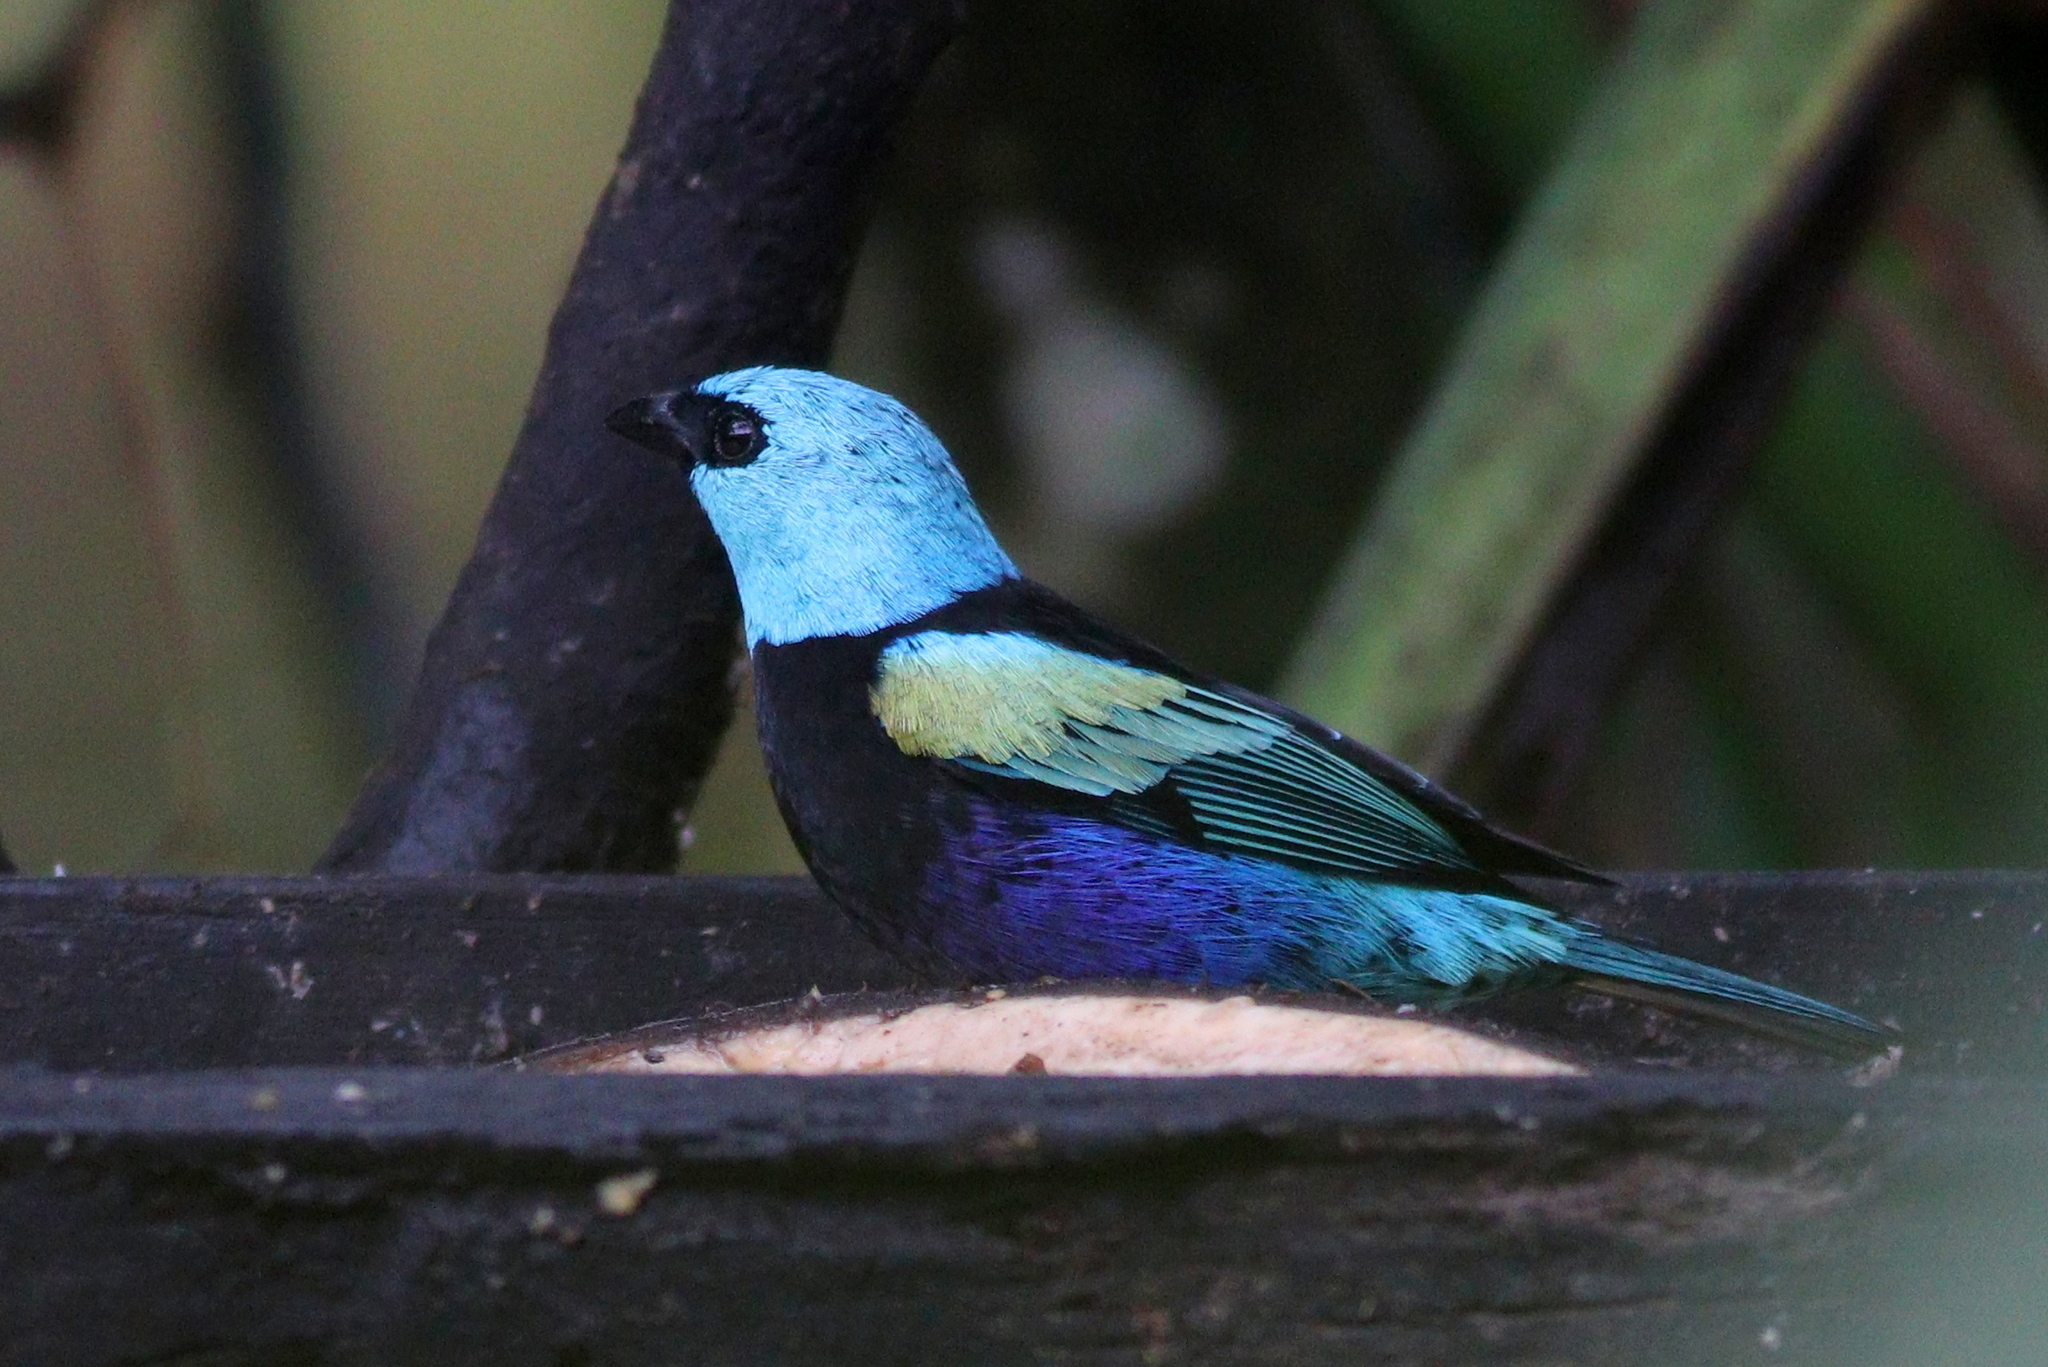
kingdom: Animalia
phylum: Chordata
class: Aves
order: Passeriformes
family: Thraupidae
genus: Stilpnia
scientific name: Stilpnia cyanicollis
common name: Blue-necked tanager
